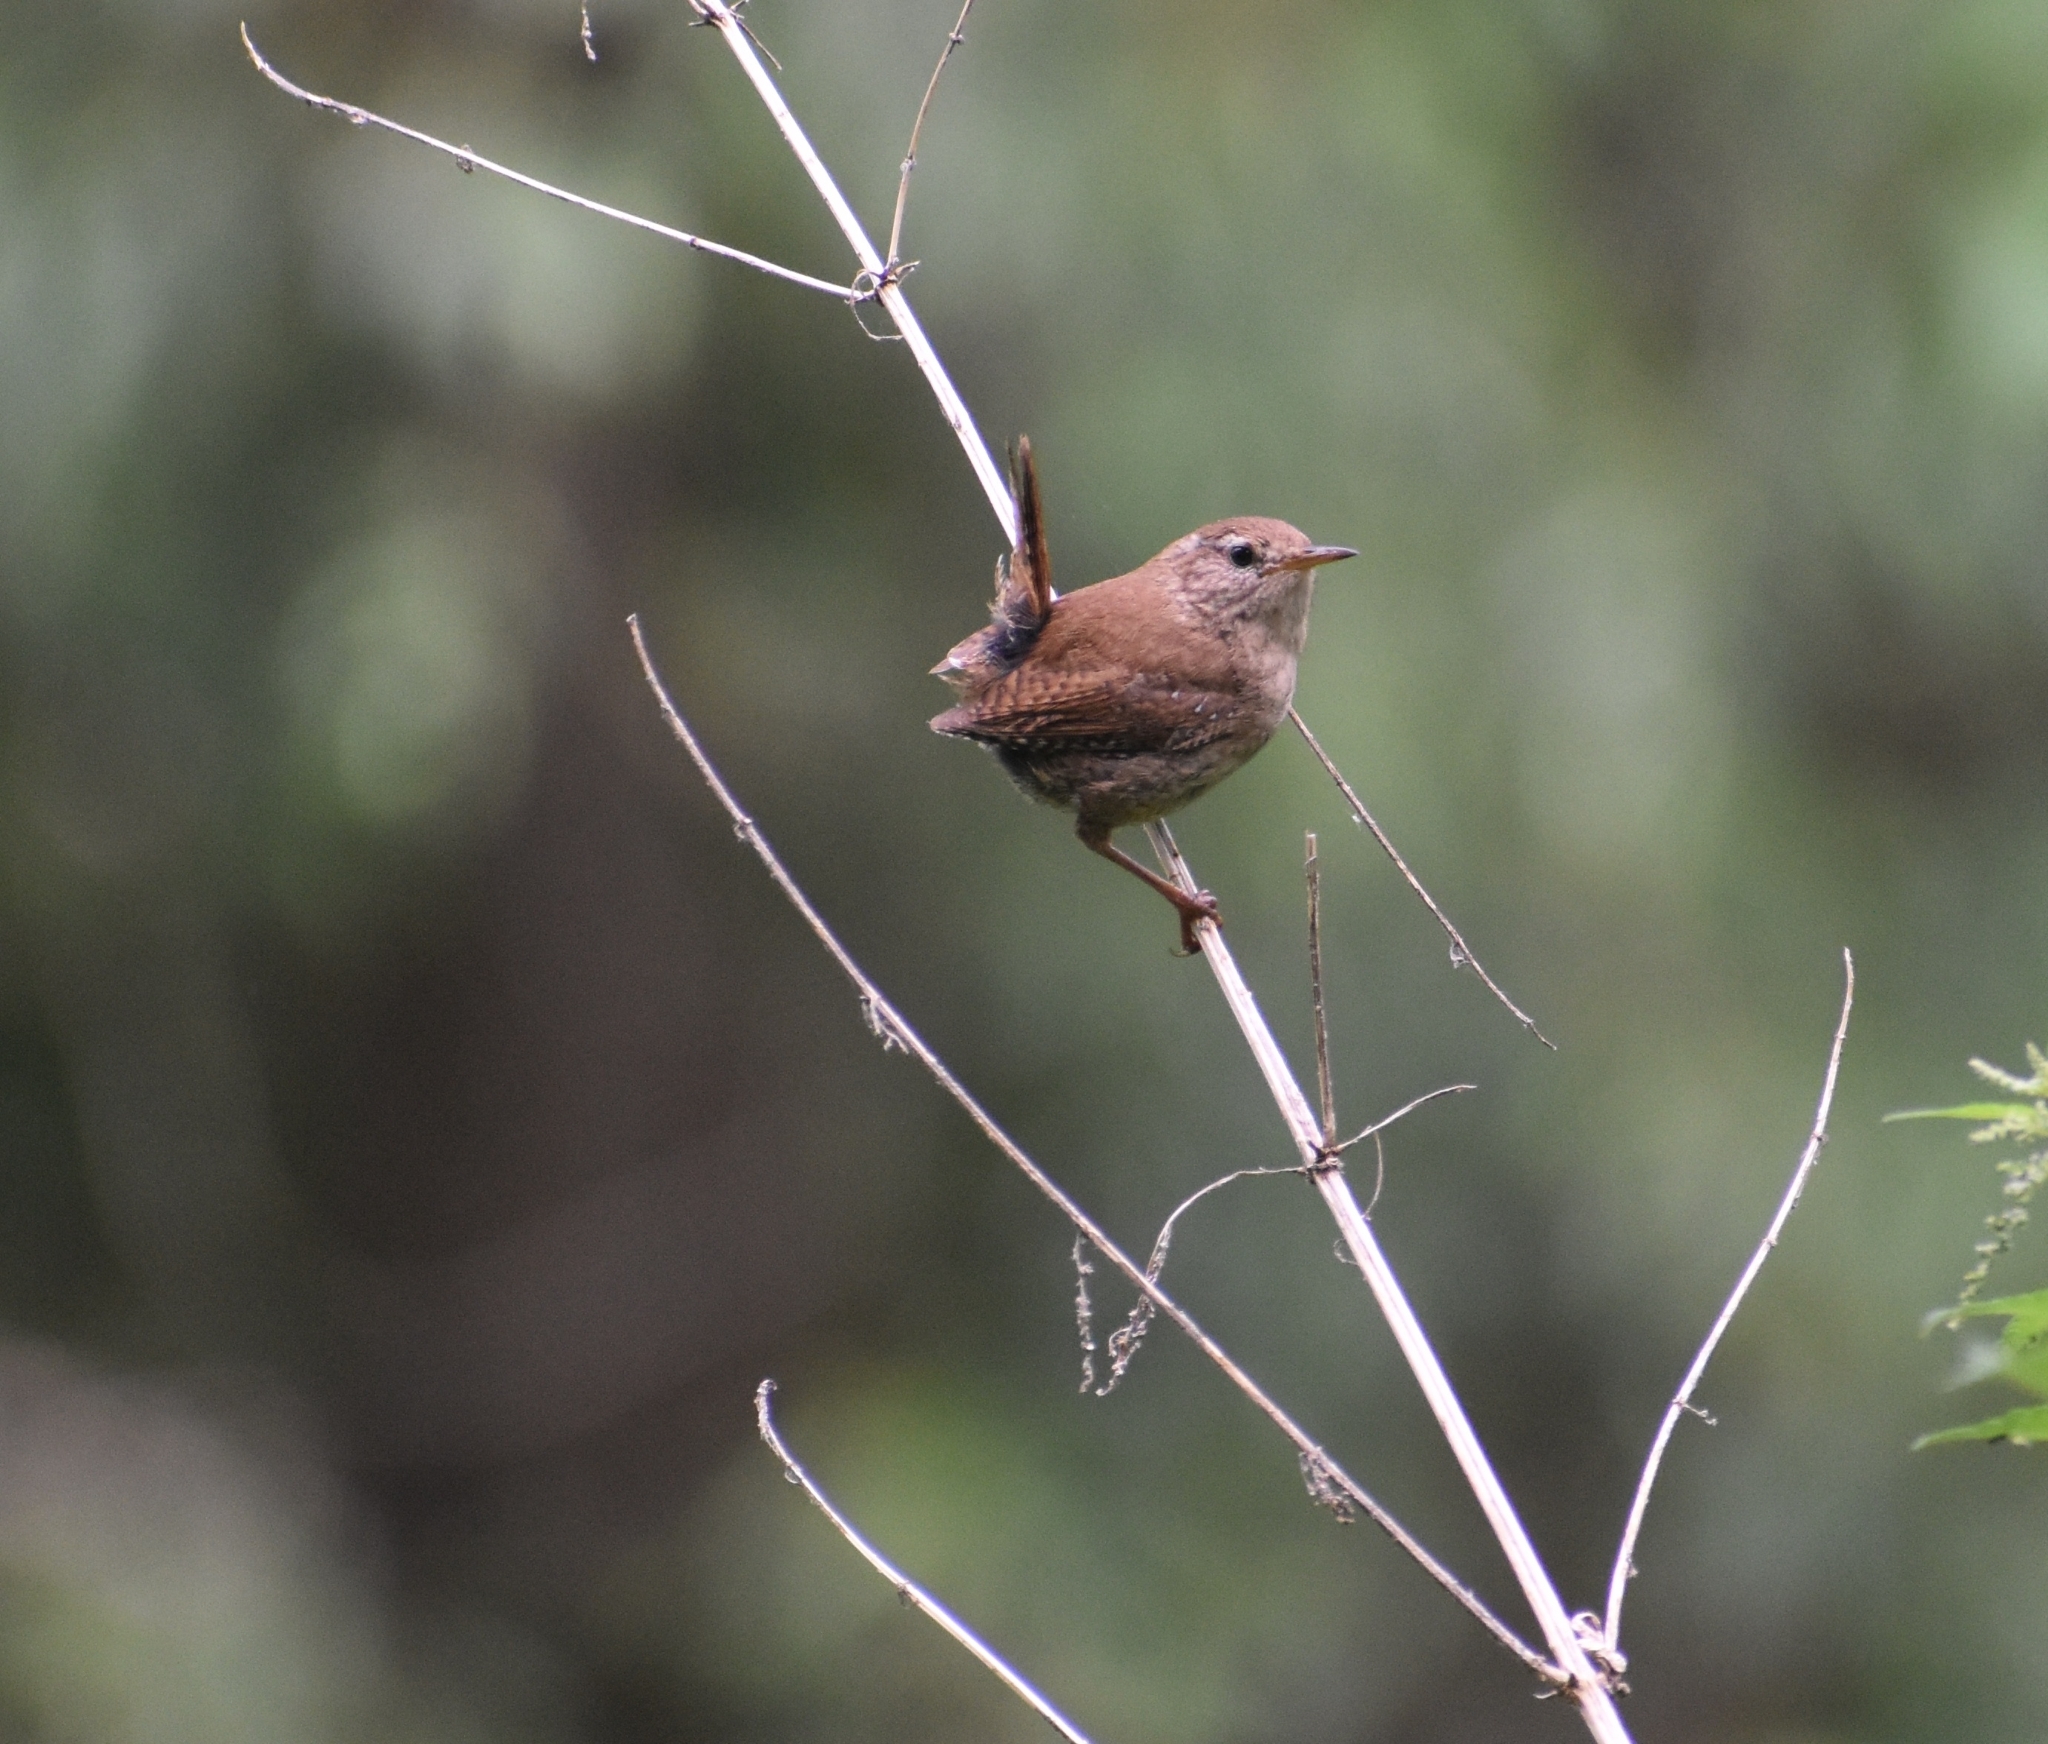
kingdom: Animalia
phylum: Chordata
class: Aves
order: Passeriformes
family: Troglodytidae
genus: Troglodytes
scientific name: Troglodytes troglodytes
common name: Eurasian wren
